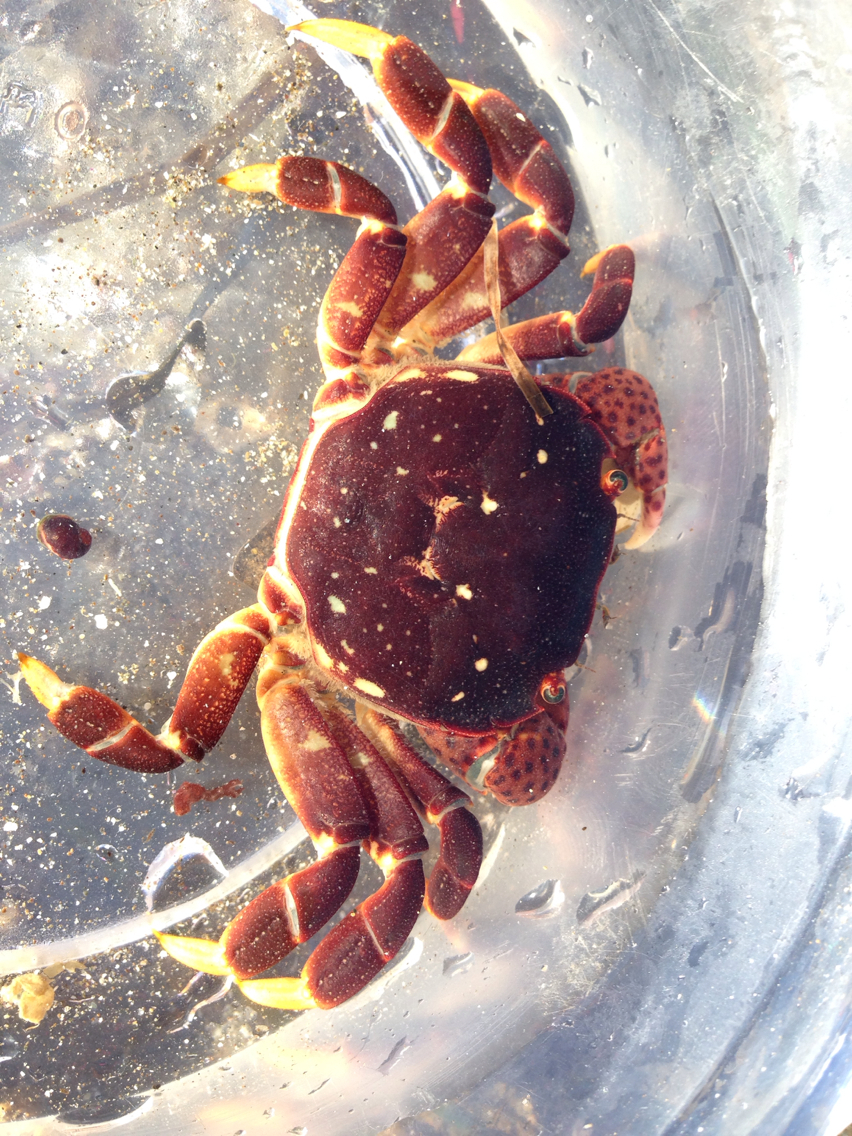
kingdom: Animalia
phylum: Arthropoda
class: Malacostraca
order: Decapoda
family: Varunidae
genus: Hemigrapsus
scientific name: Hemigrapsus nudus
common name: Purple shore crab
